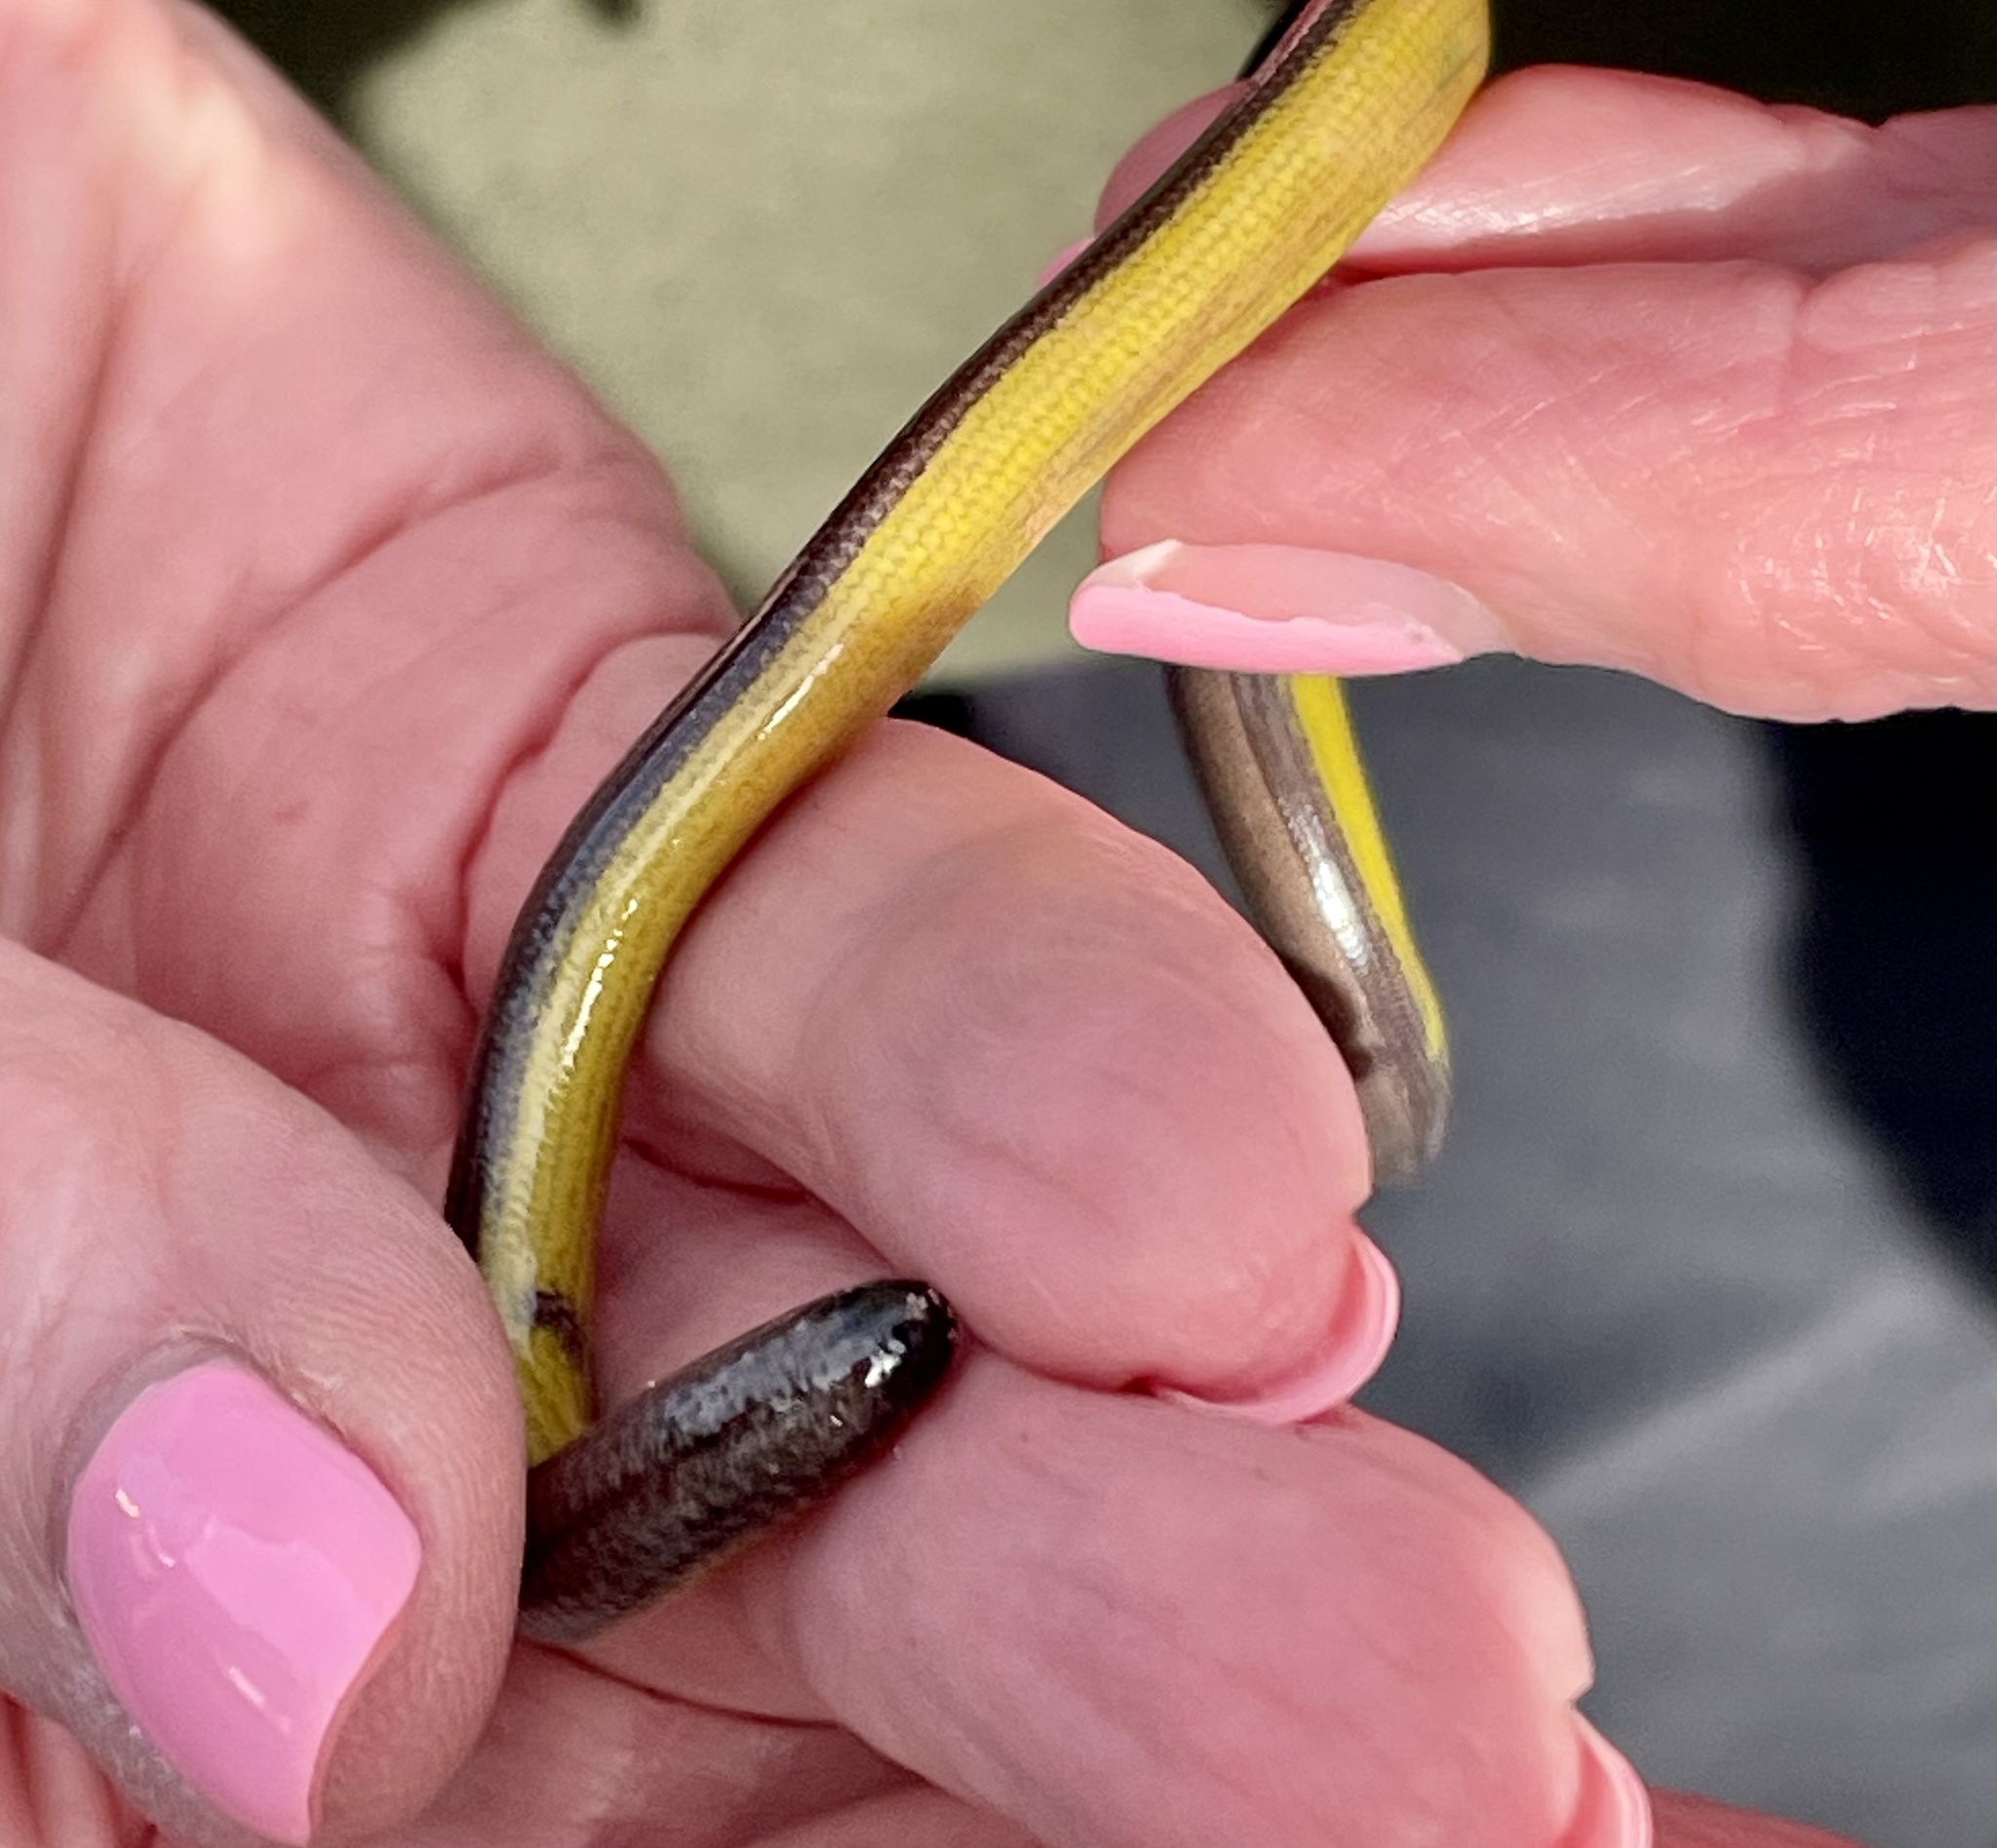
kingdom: Animalia
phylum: Chordata
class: Squamata
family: Anguidae
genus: Anniella
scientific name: Anniella pulchra
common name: California legless lizard
